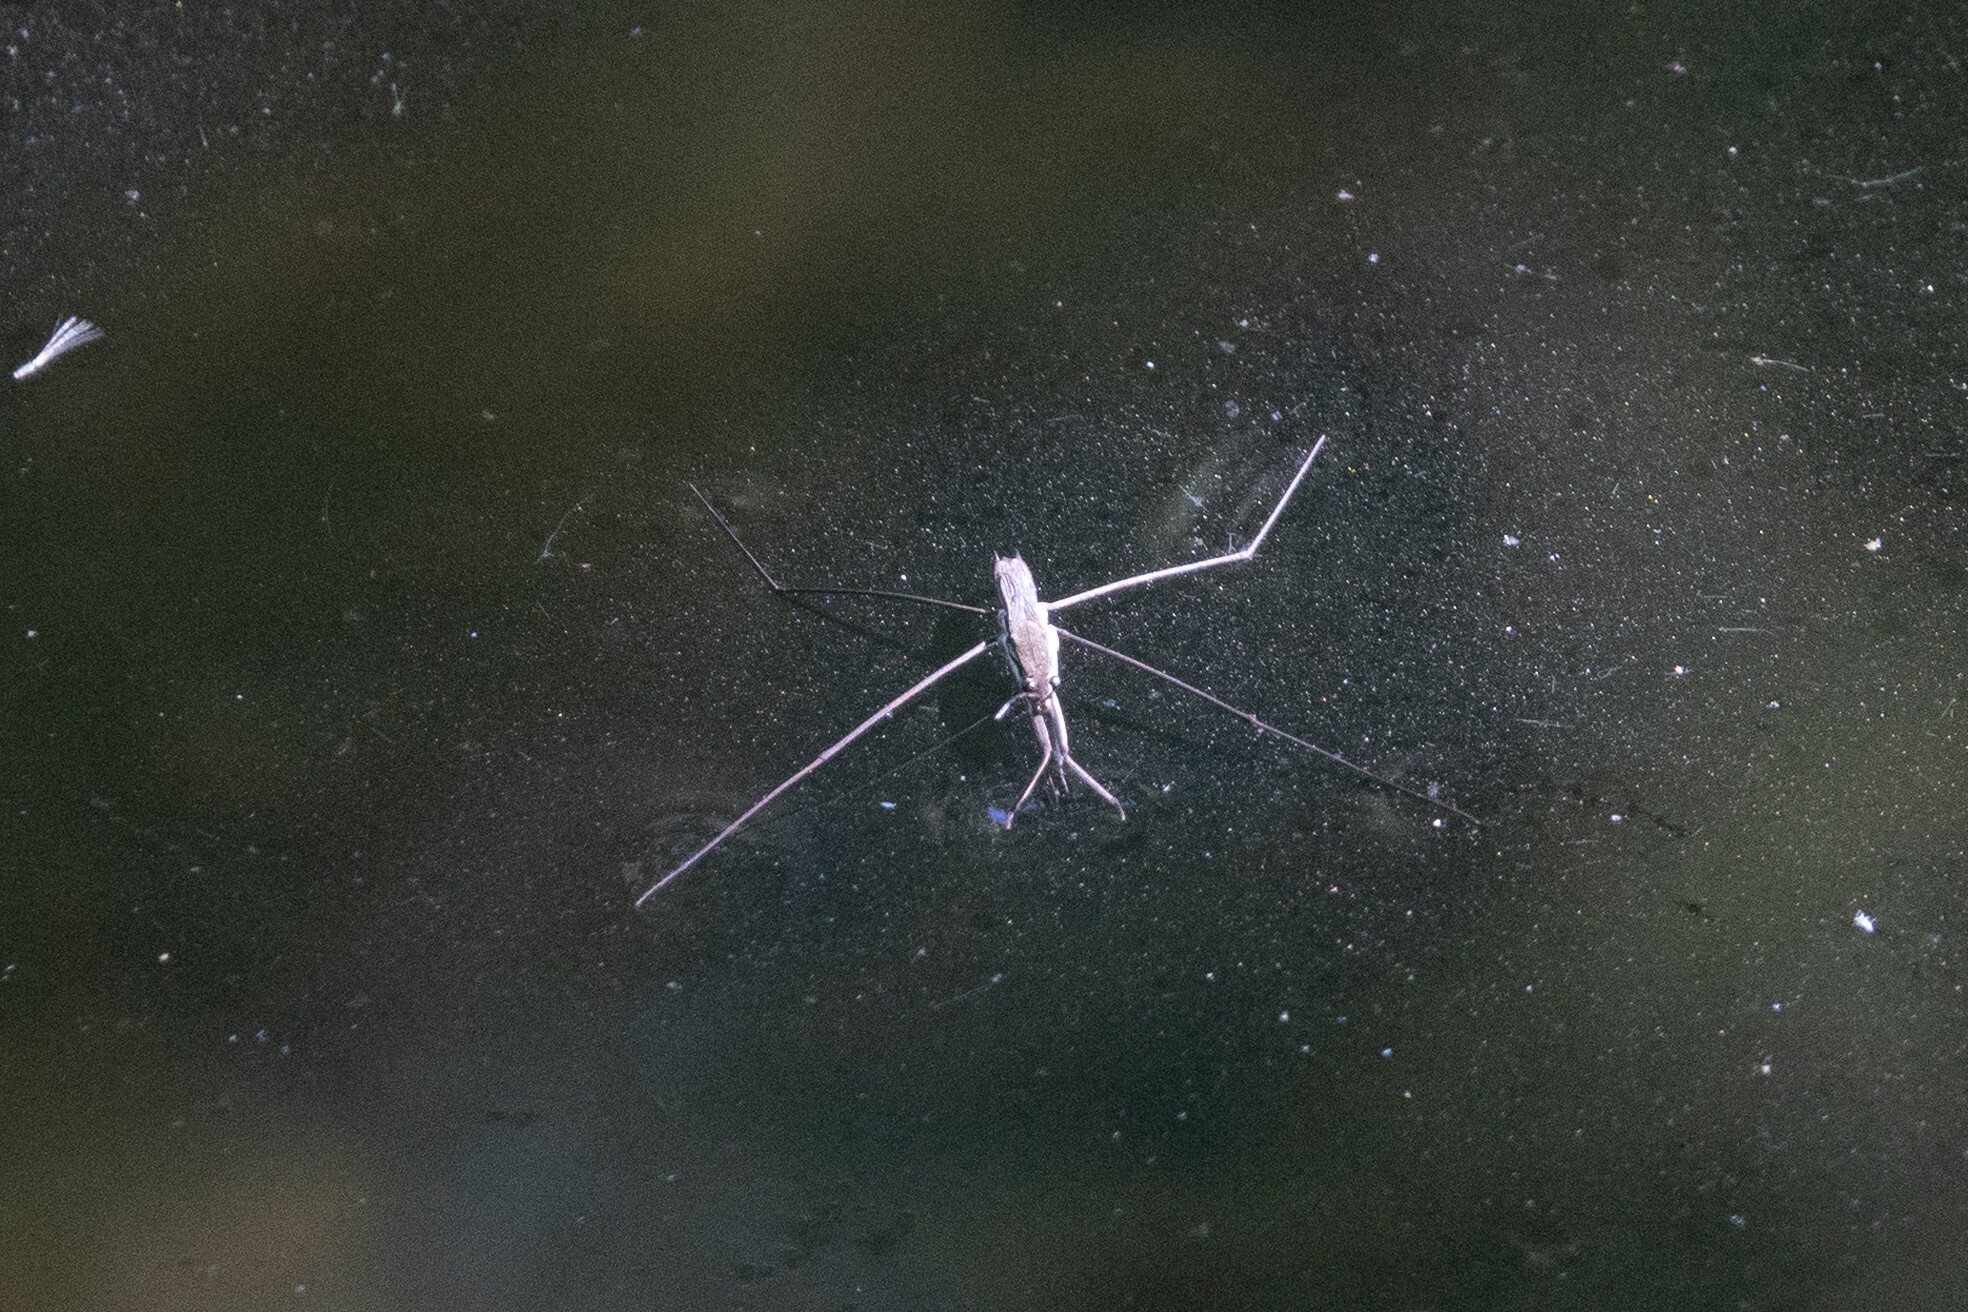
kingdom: Animalia
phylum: Arthropoda
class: Insecta
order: Hemiptera
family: Gerridae
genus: Aquarius
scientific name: Aquarius paludum
